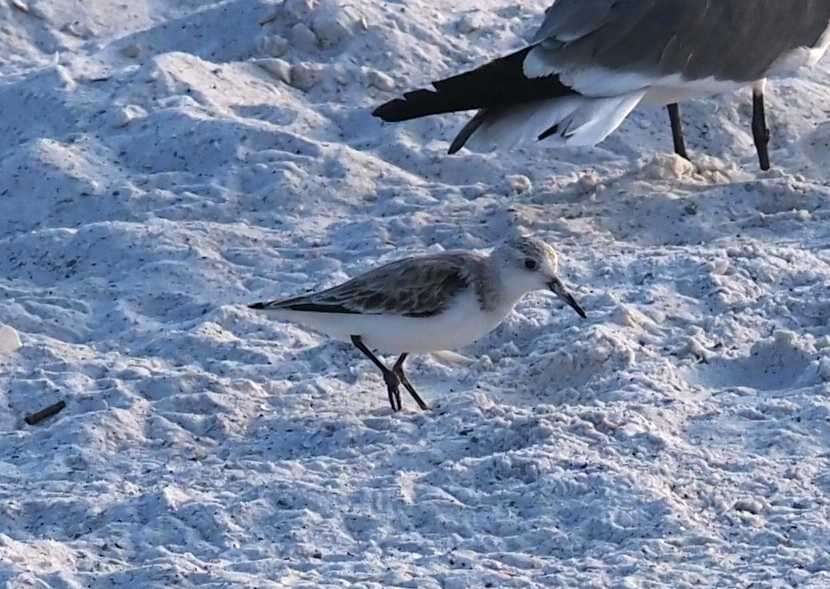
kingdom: Animalia
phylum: Chordata
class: Aves
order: Charadriiformes
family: Scolopacidae
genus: Calidris
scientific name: Calidris alba
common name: Sanderling
